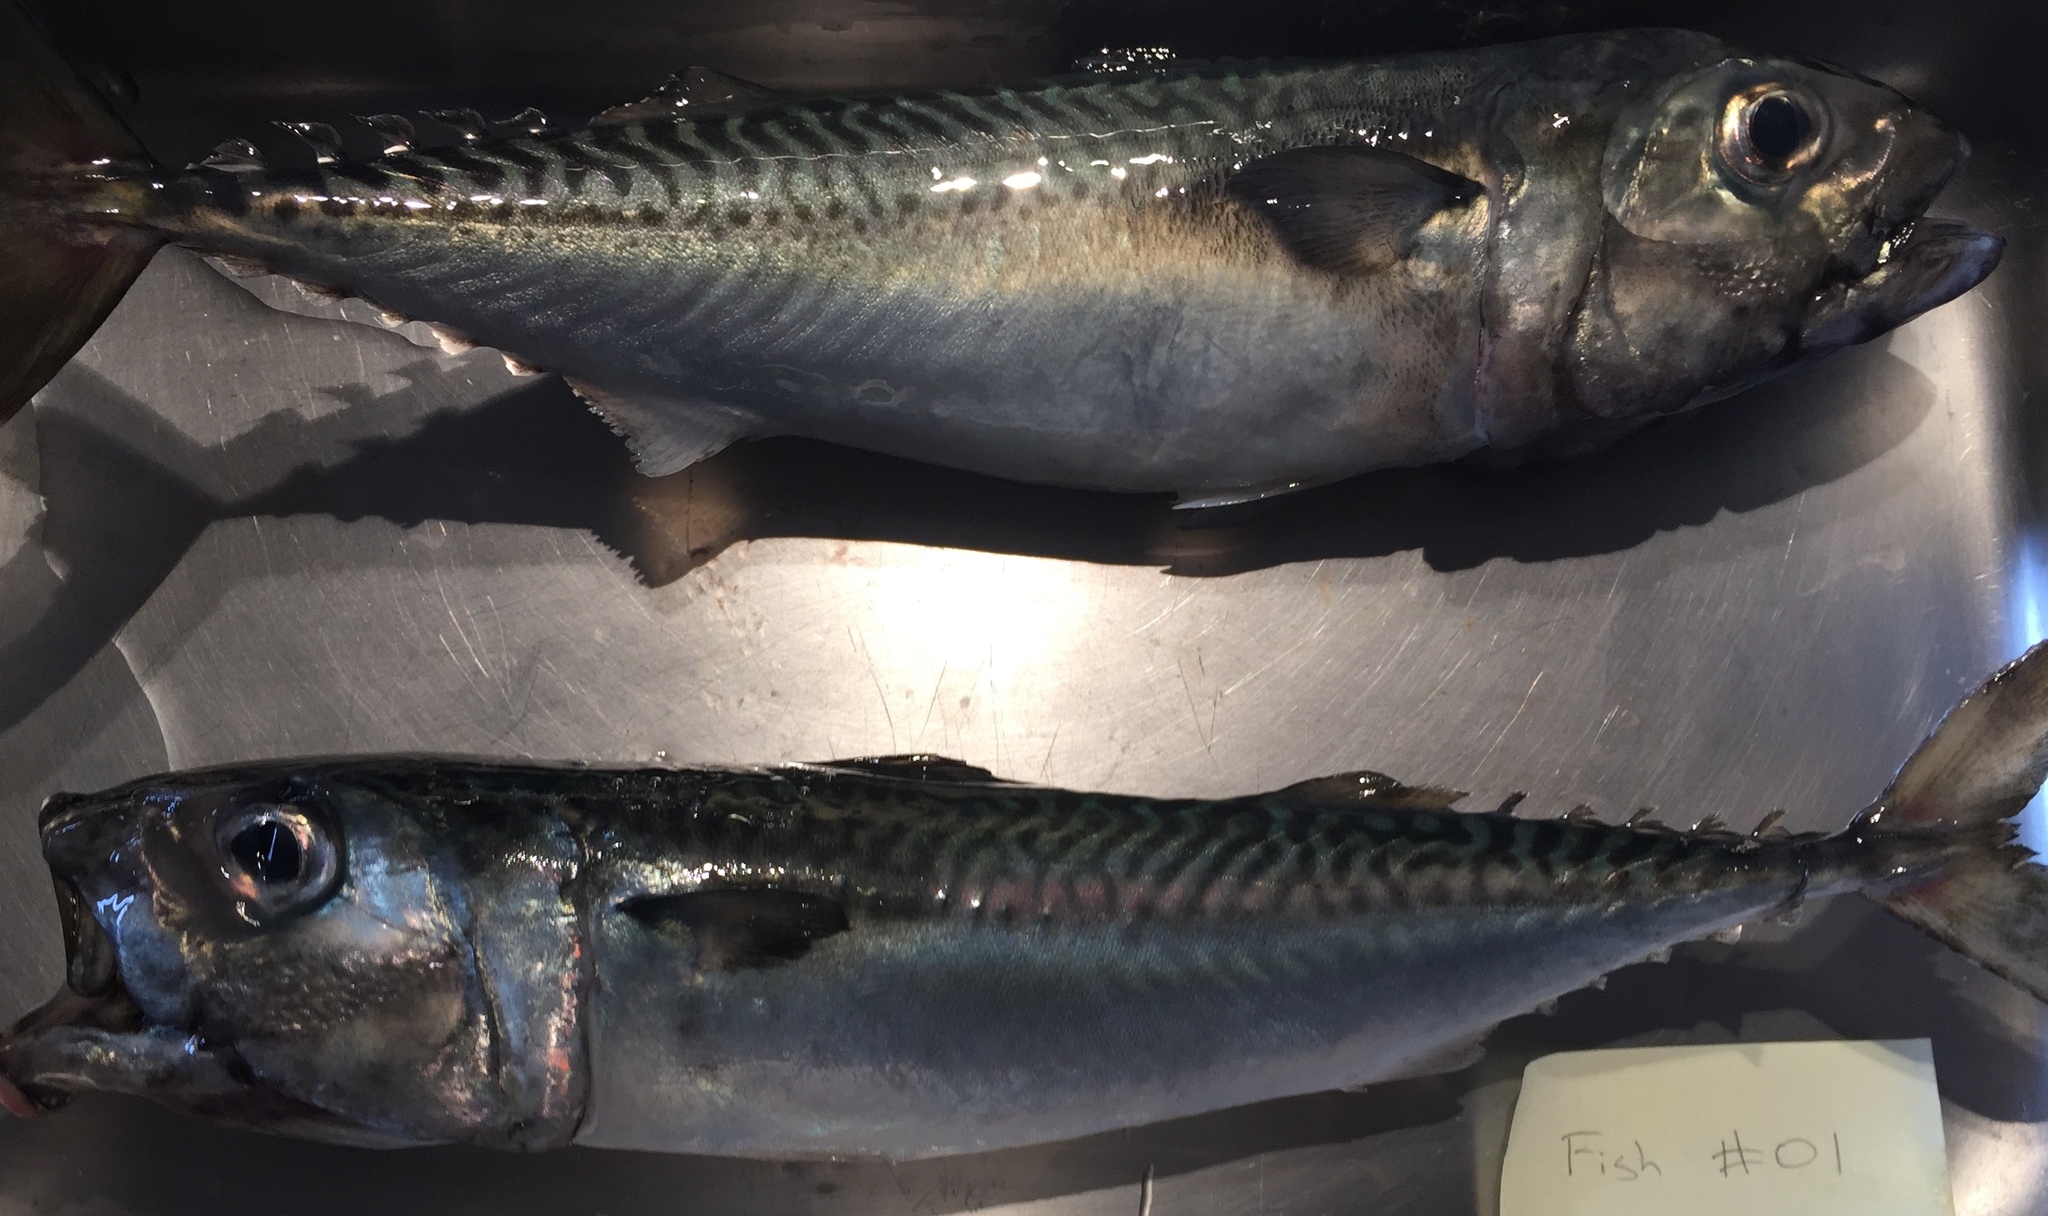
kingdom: Animalia
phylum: Chordata
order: Perciformes
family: Scombridae
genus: Scomber
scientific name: Scomber japonicus
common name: Chub mackerel
